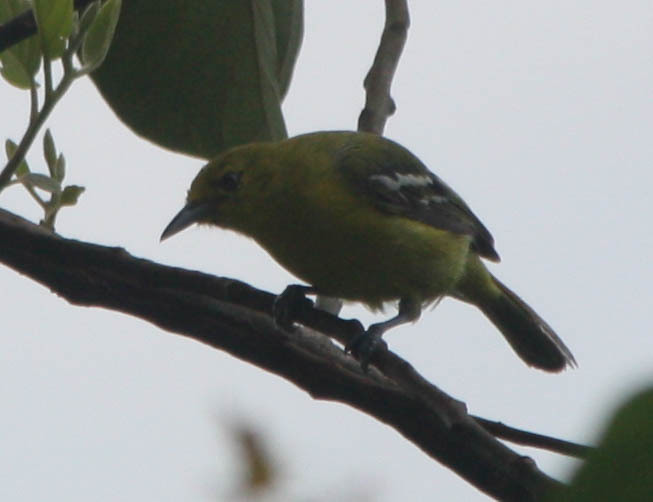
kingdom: Animalia
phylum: Chordata
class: Aves
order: Passeriformes
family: Aegithinidae
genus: Aegithina
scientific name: Aegithina tiphia
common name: Common iora
